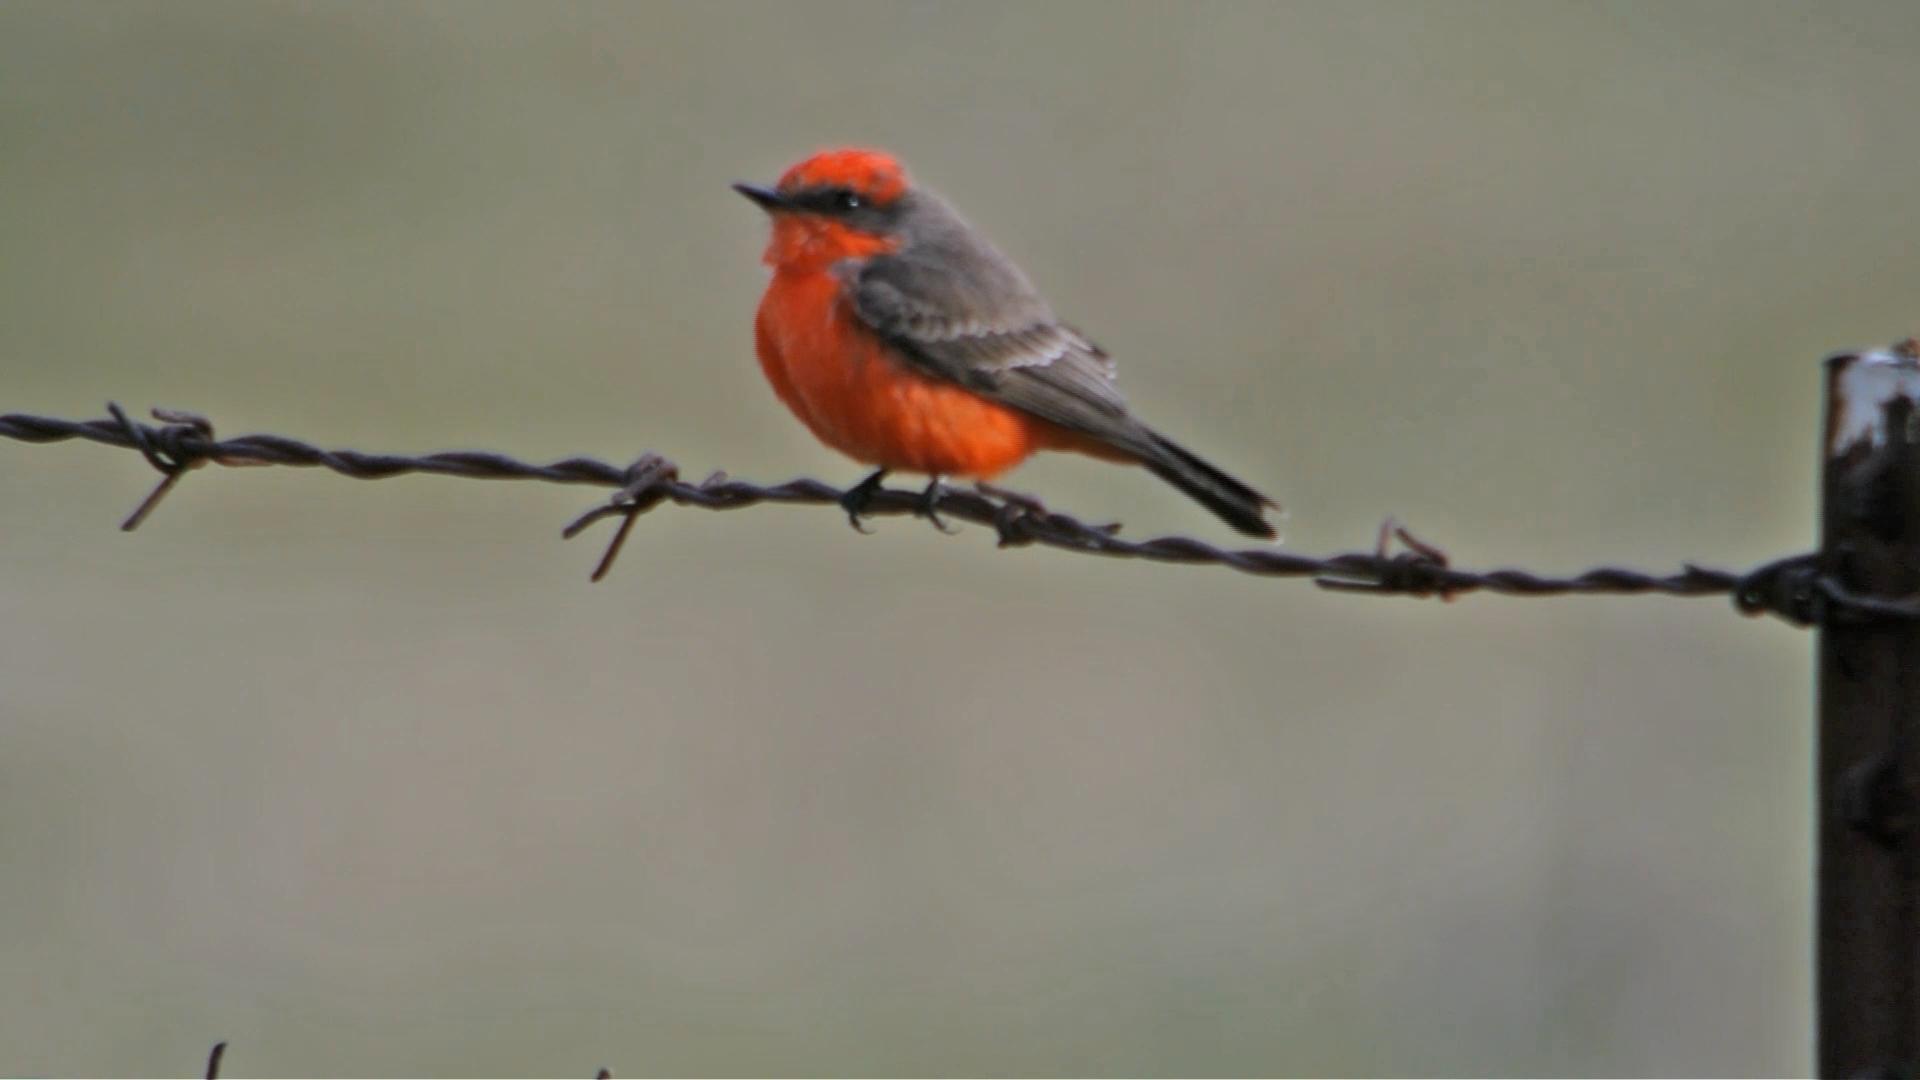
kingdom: Animalia
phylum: Chordata
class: Aves
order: Passeriformes
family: Tyrannidae
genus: Pyrocephalus
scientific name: Pyrocephalus rubinus
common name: Vermilion flycatcher
